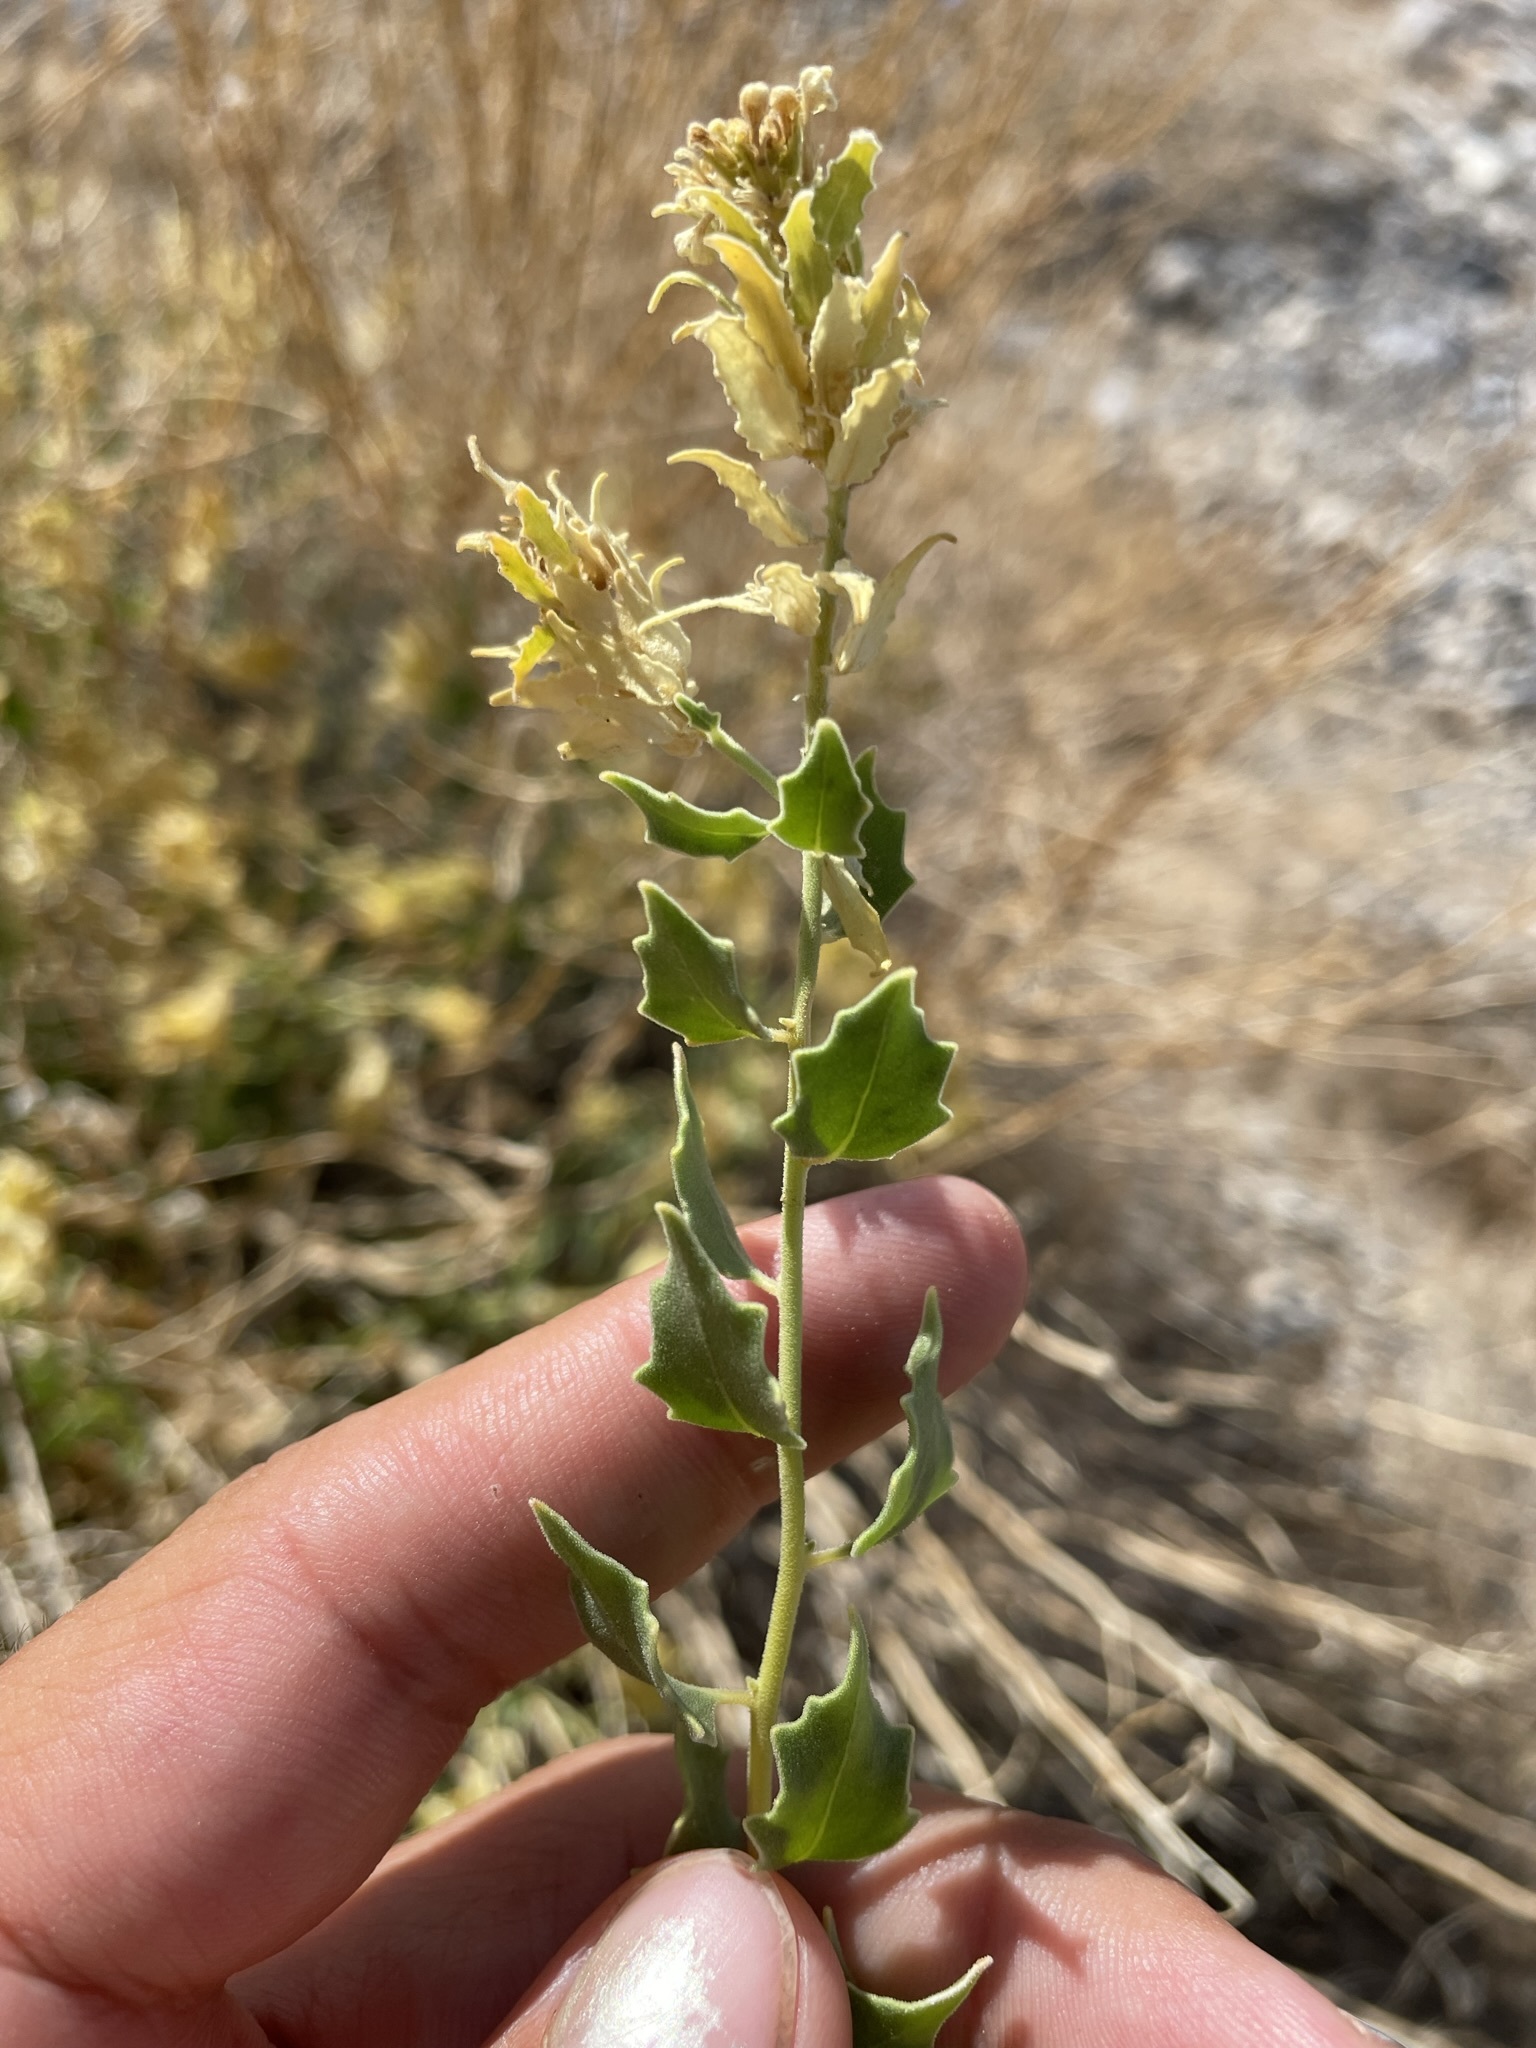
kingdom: Plantae
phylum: Tracheophyta
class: Magnoliopsida
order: Cornales
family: Loasaceae
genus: Petalonyx
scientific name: Petalonyx nitidus
